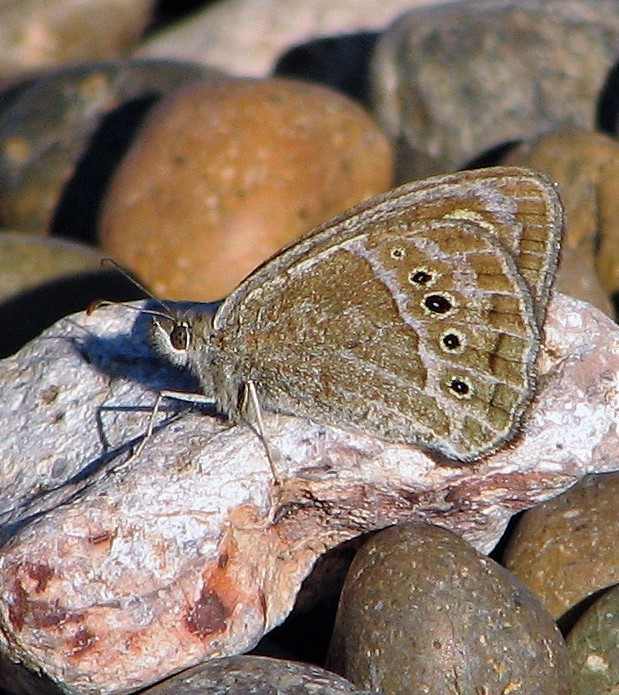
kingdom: Animalia
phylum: Arthropoda
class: Insecta
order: Lepidoptera
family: Nymphalidae
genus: Pampasatyrus
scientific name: Pampasatyrus gyrtone
